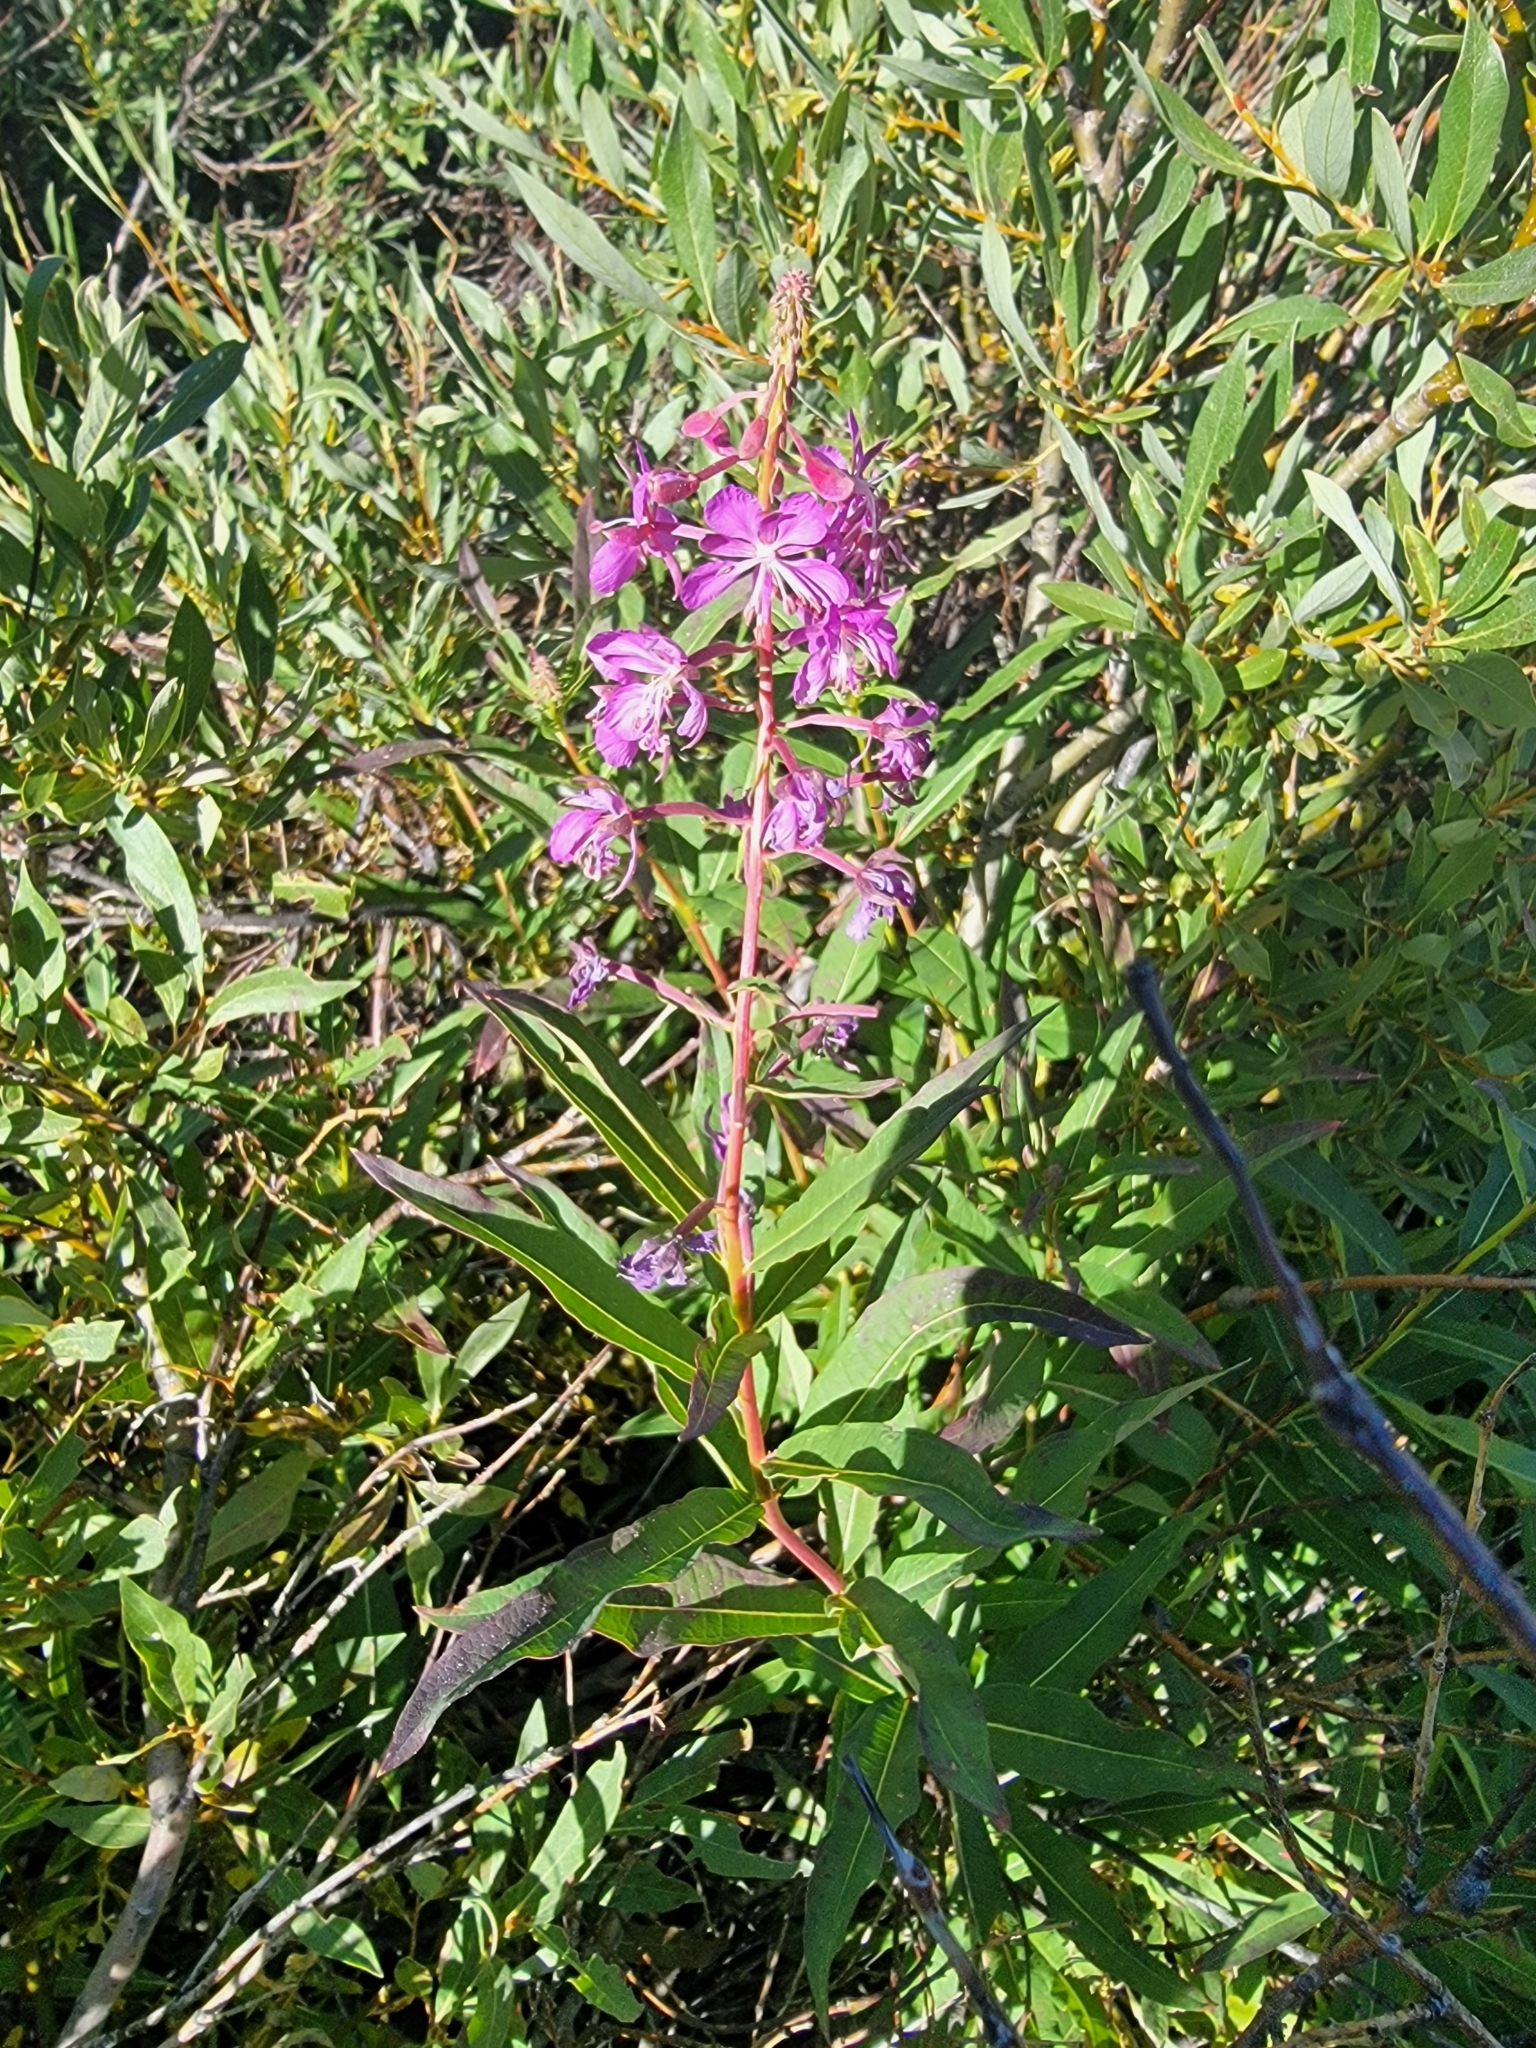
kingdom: Plantae
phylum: Tracheophyta
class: Magnoliopsida
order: Myrtales
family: Onagraceae
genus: Chamaenerion
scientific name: Chamaenerion angustifolium
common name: Fireweed
